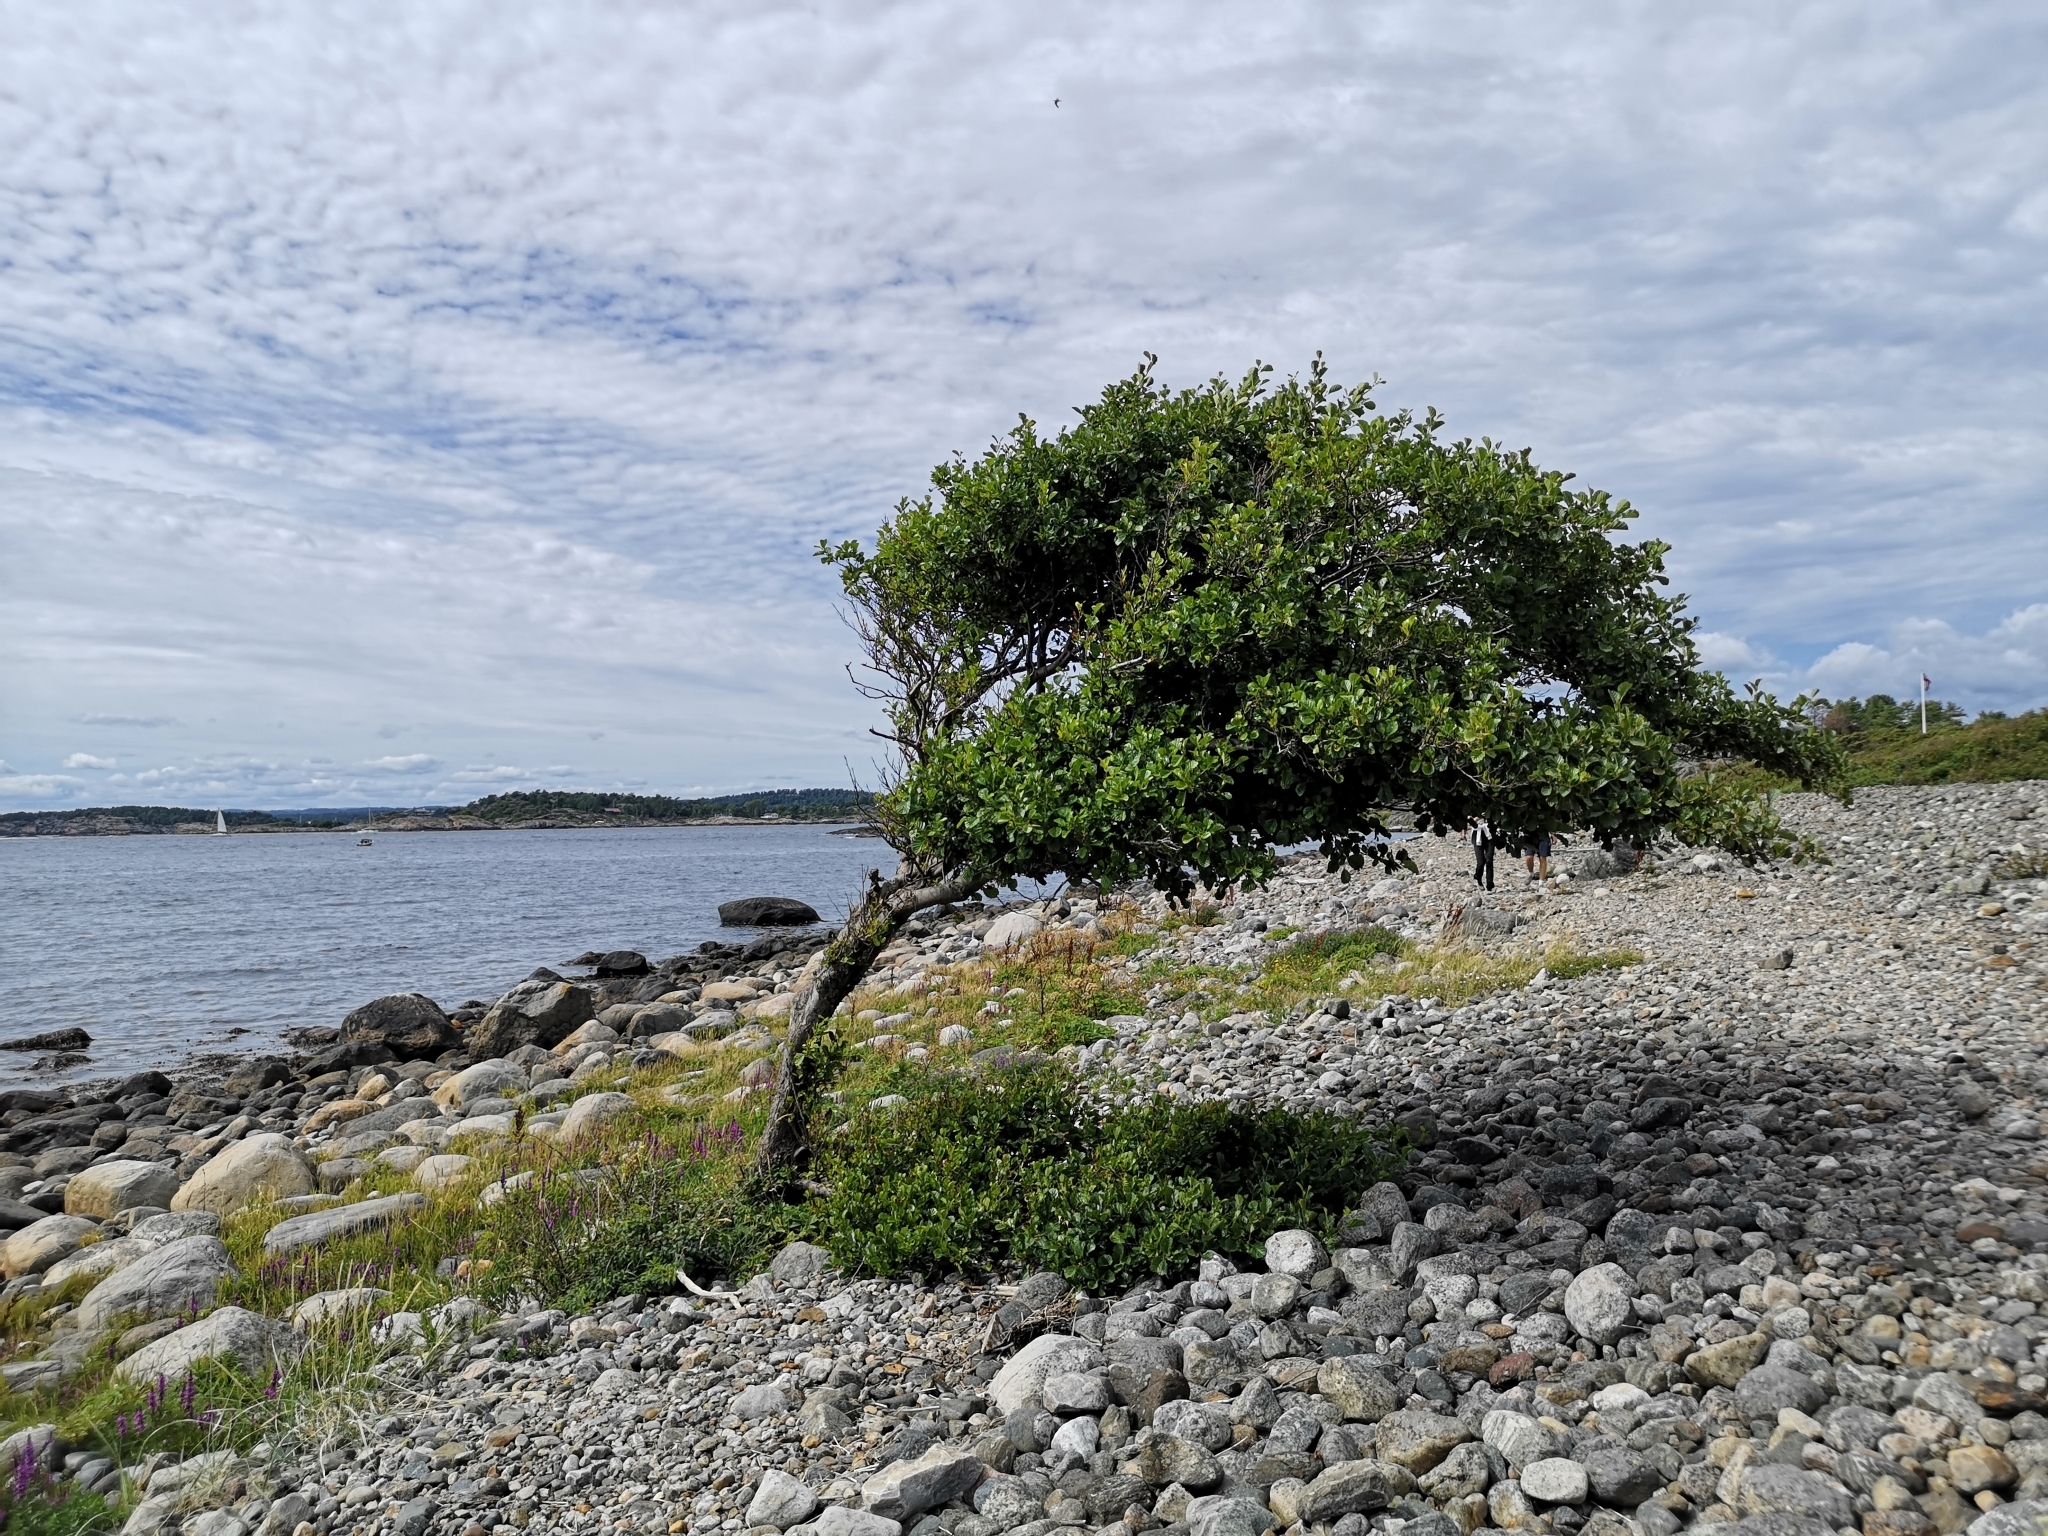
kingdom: Plantae
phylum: Tracheophyta
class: Magnoliopsida
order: Fagales
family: Betulaceae
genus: Alnus
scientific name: Alnus glutinosa
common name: Black alder
